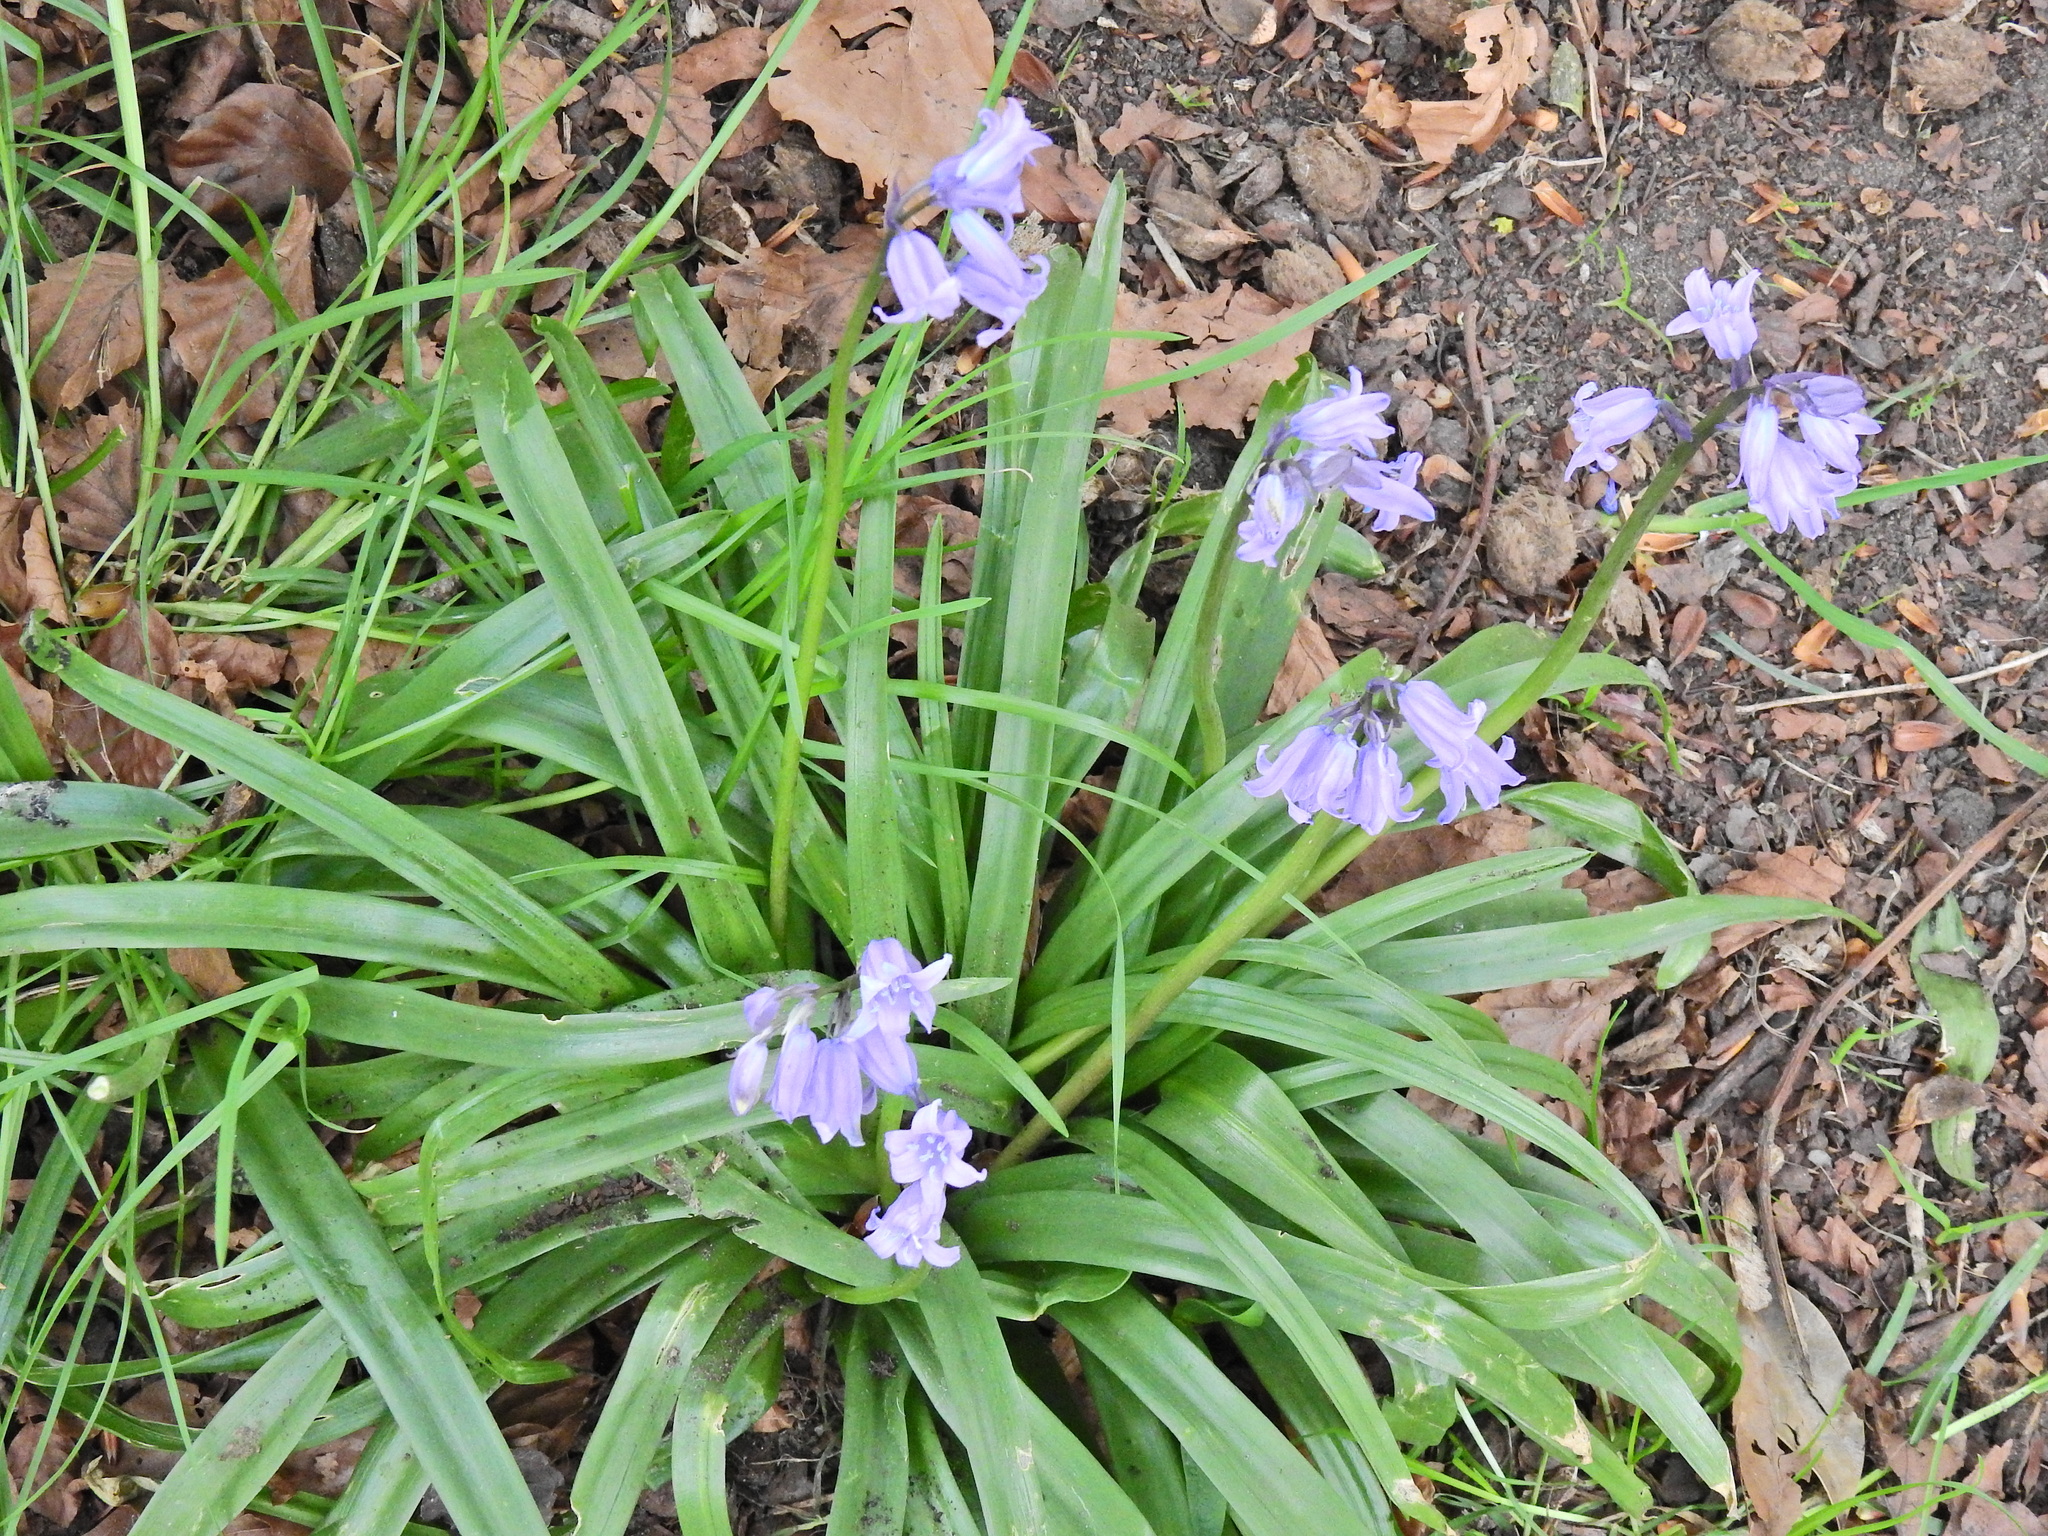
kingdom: Plantae
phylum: Tracheophyta
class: Liliopsida
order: Asparagales
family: Asparagaceae
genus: Hyacinthoides
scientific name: Hyacinthoides massartiana
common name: Hyacinthoides
